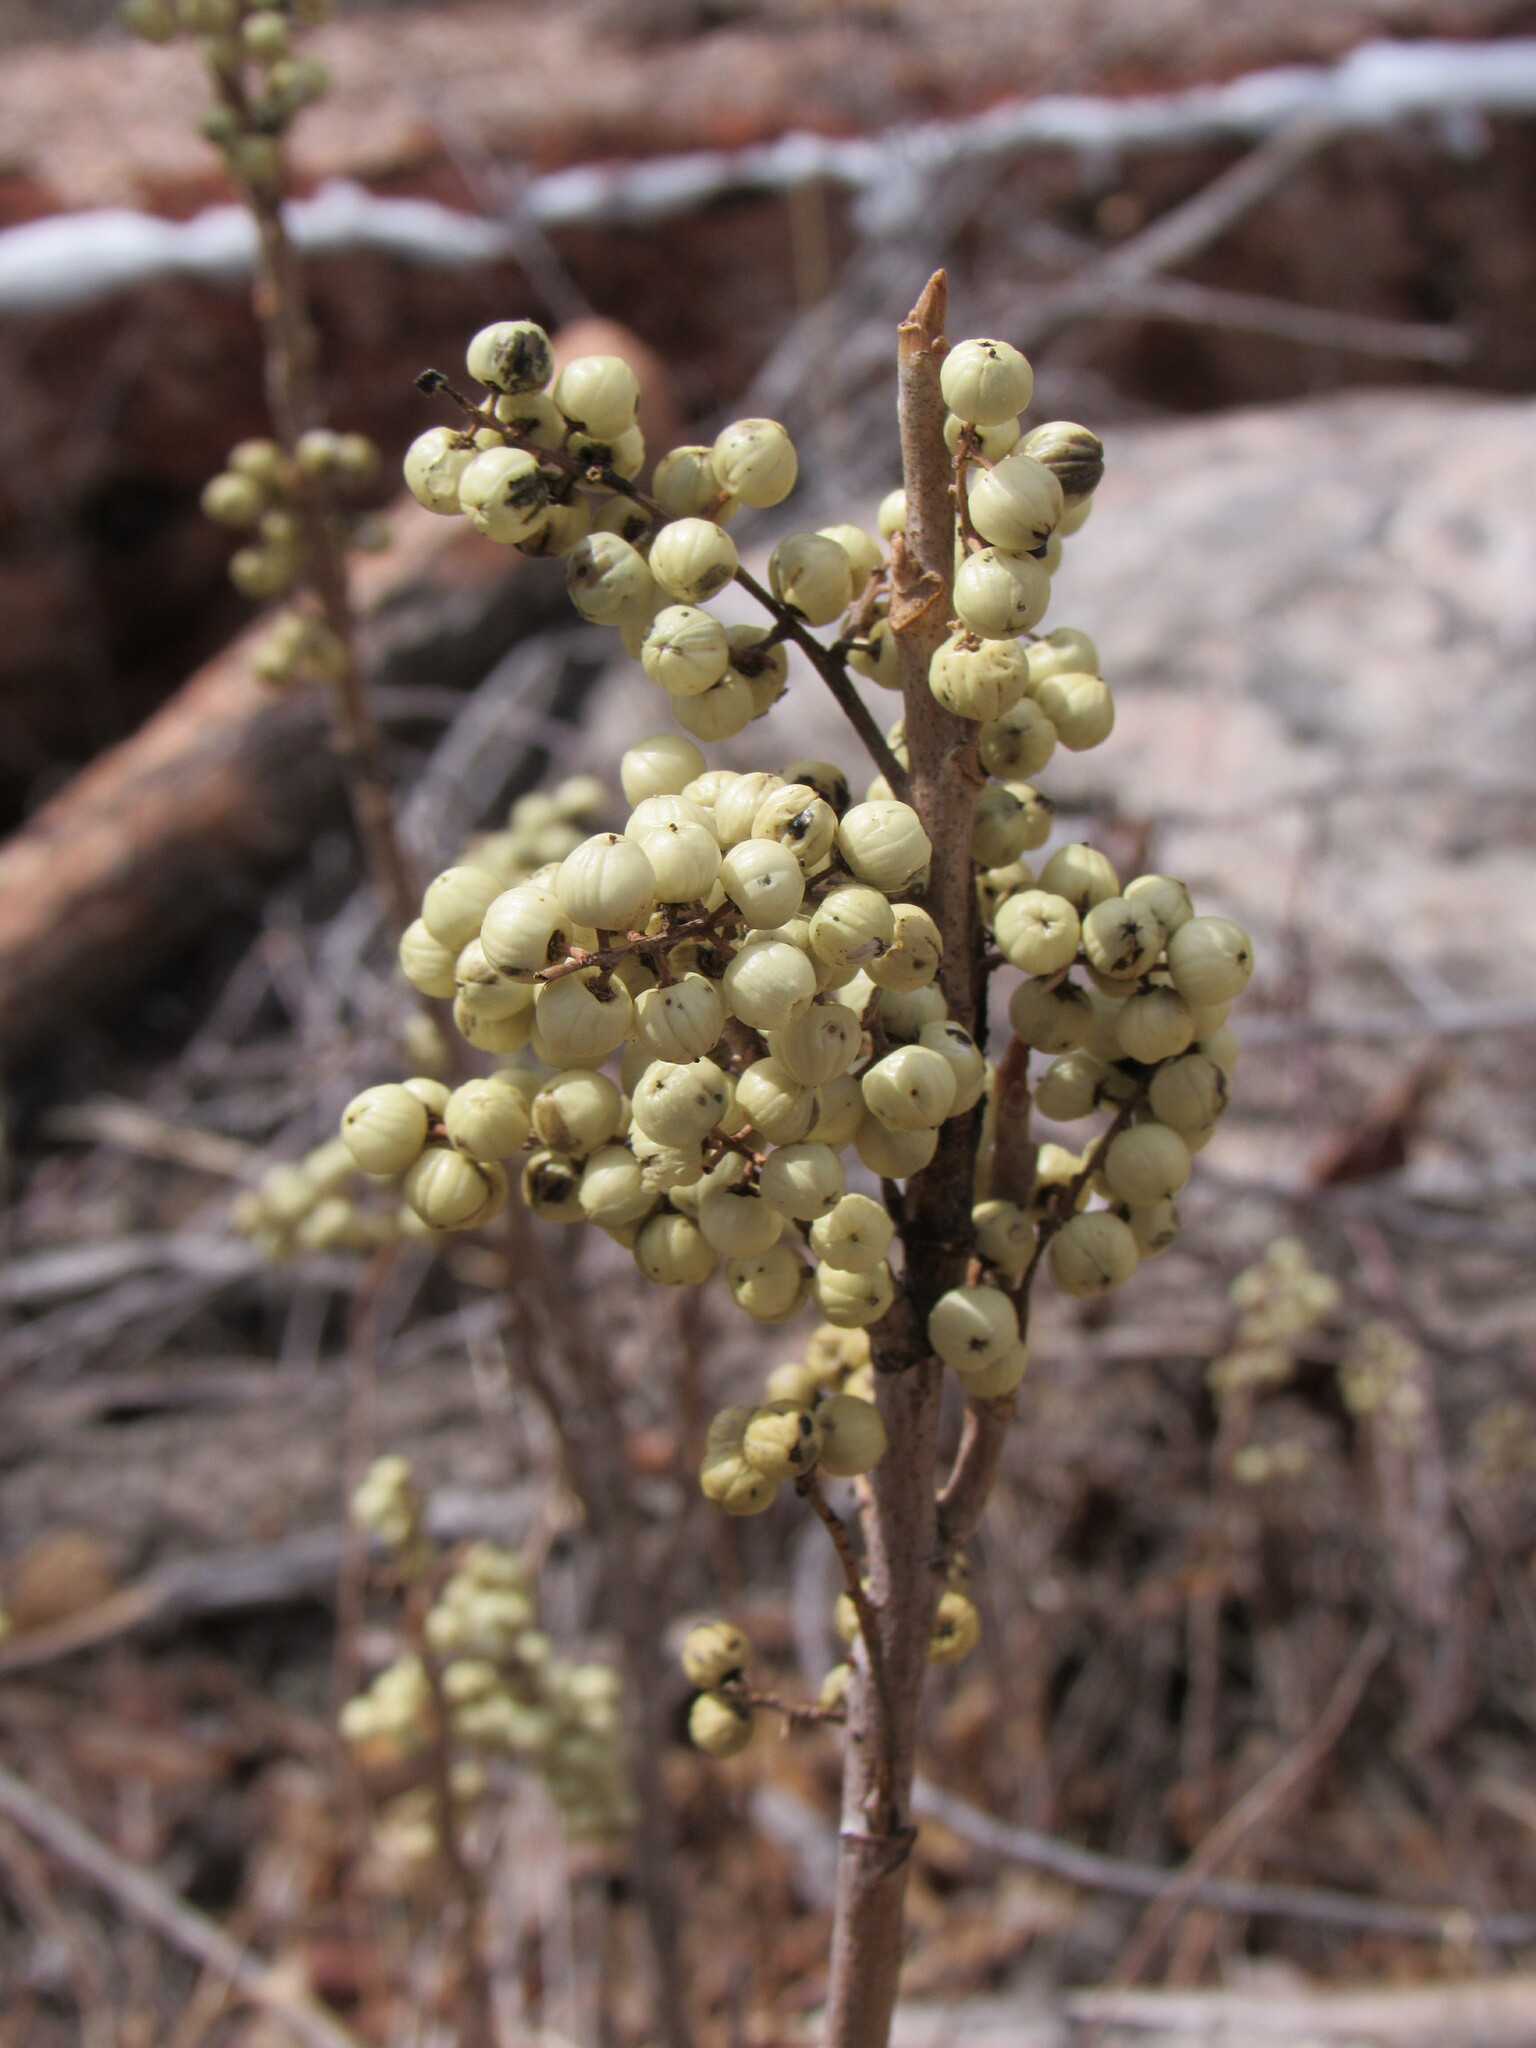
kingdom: Plantae
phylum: Tracheophyta
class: Magnoliopsida
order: Sapindales
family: Anacardiaceae
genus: Toxicodendron
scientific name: Toxicodendron rydbergii
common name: Rydberg's poison-ivy
